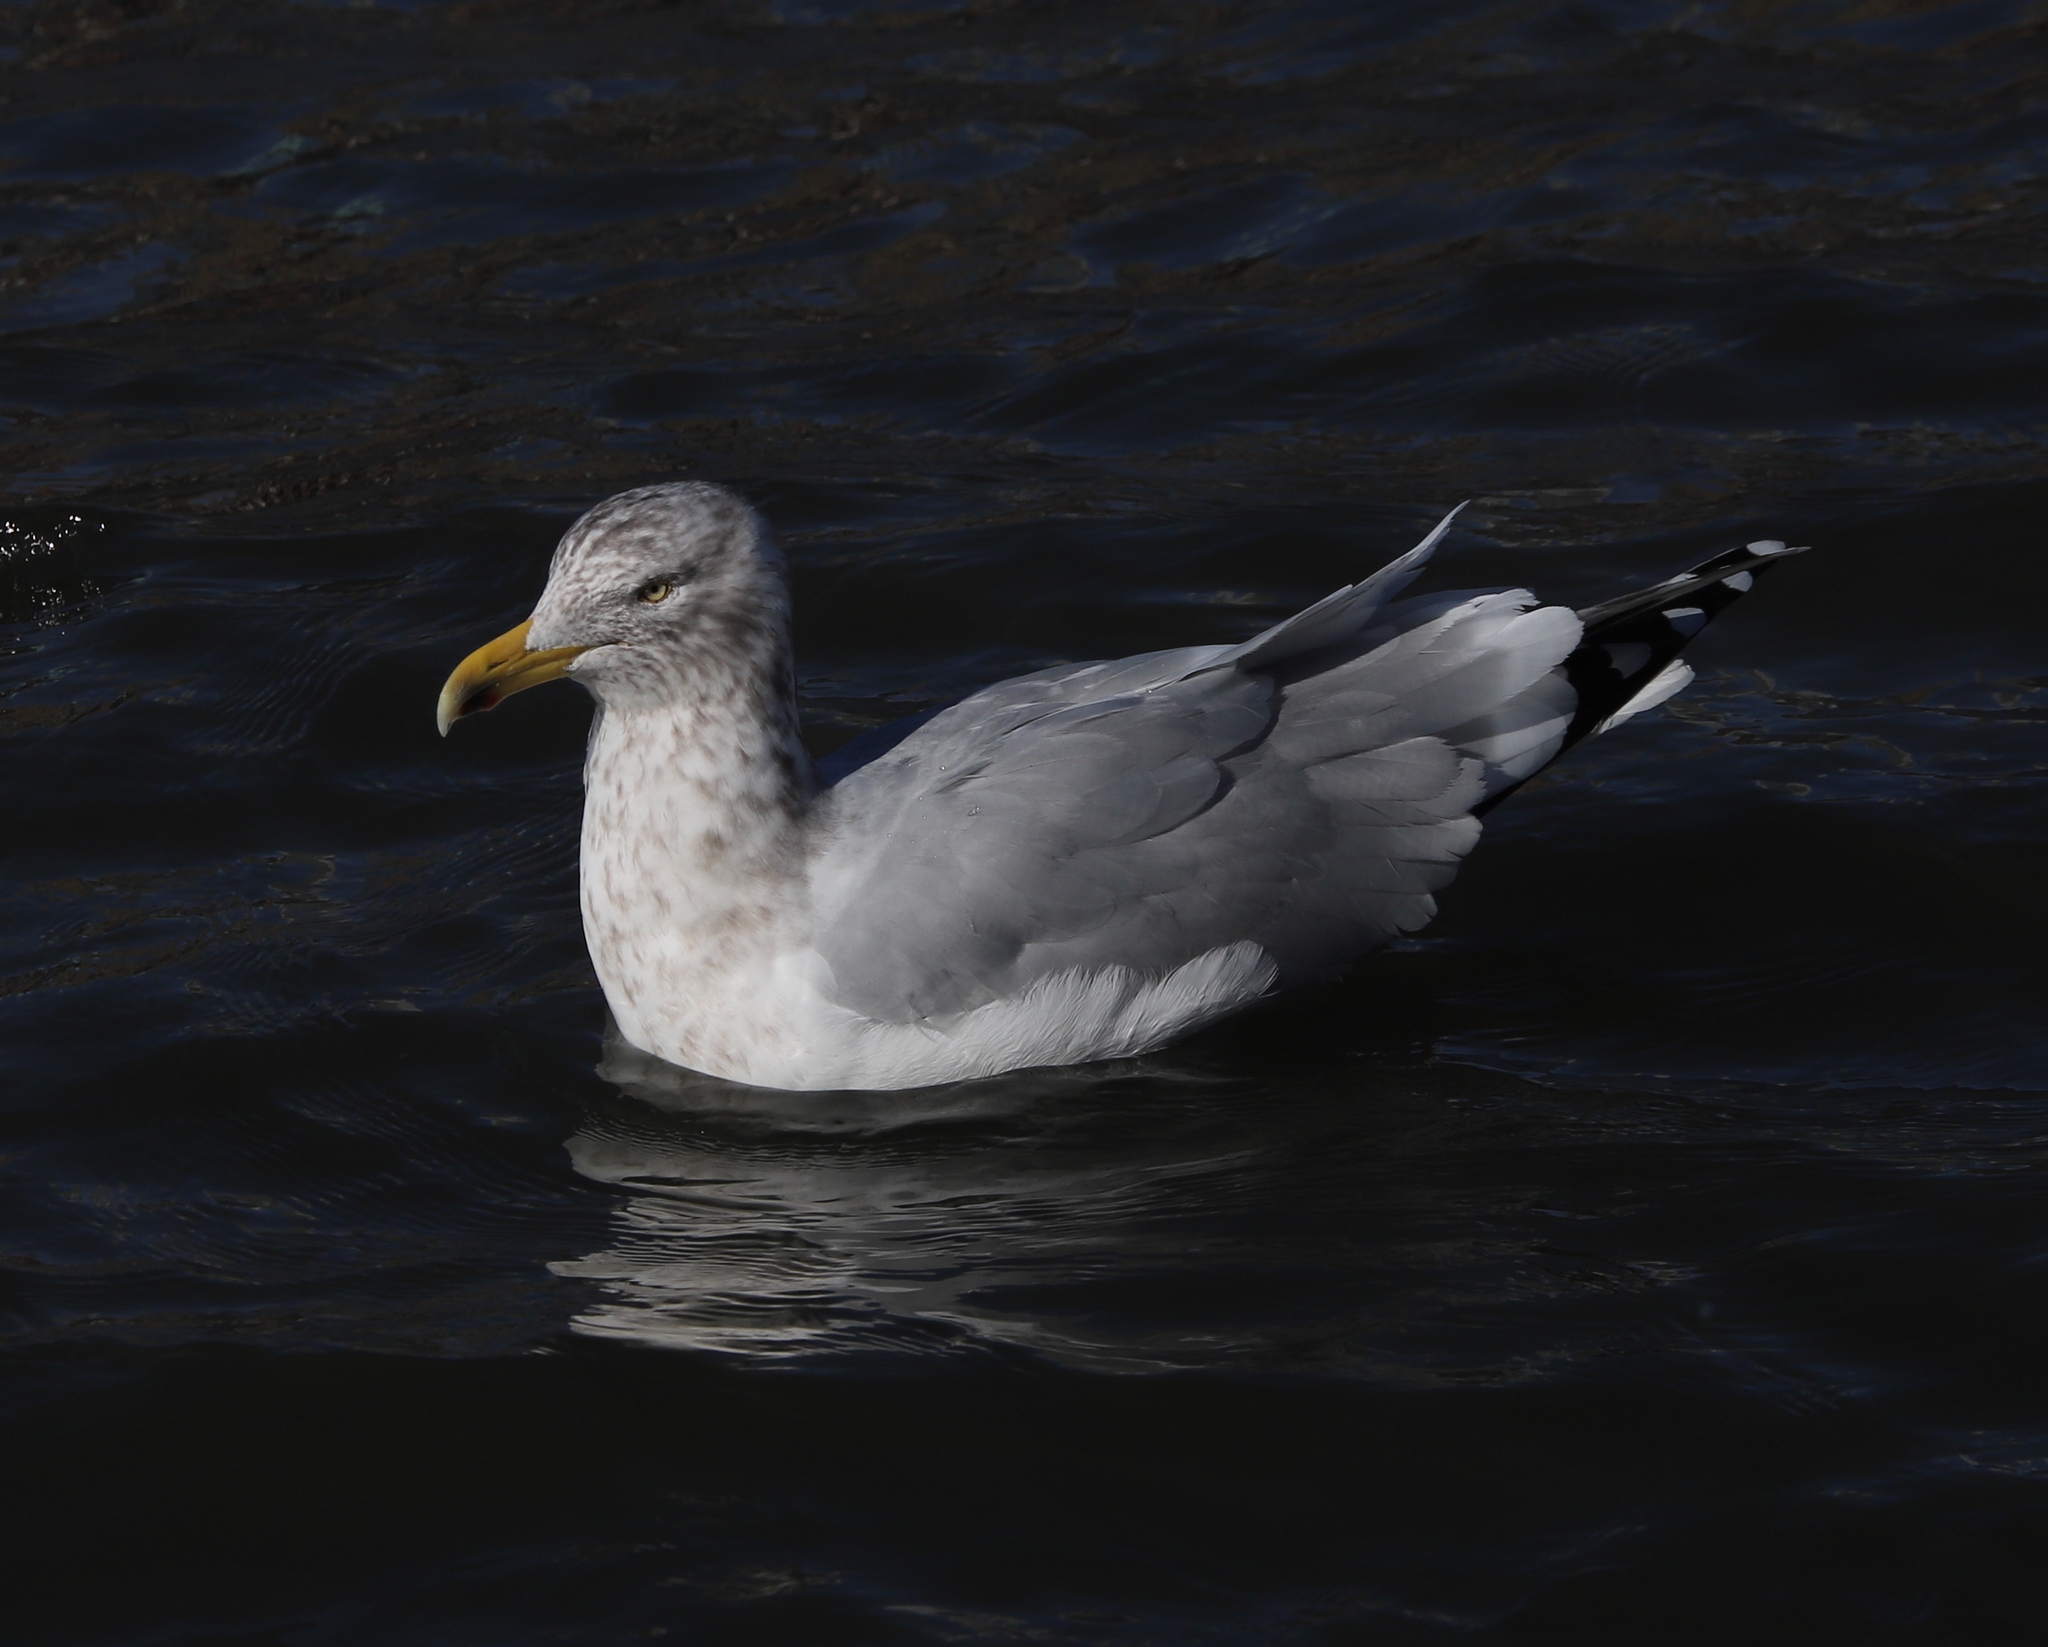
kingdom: Animalia
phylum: Chordata
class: Aves
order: Charadriiformes
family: Laridae
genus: Larus
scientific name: Larus argentatus
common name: Herring gull
